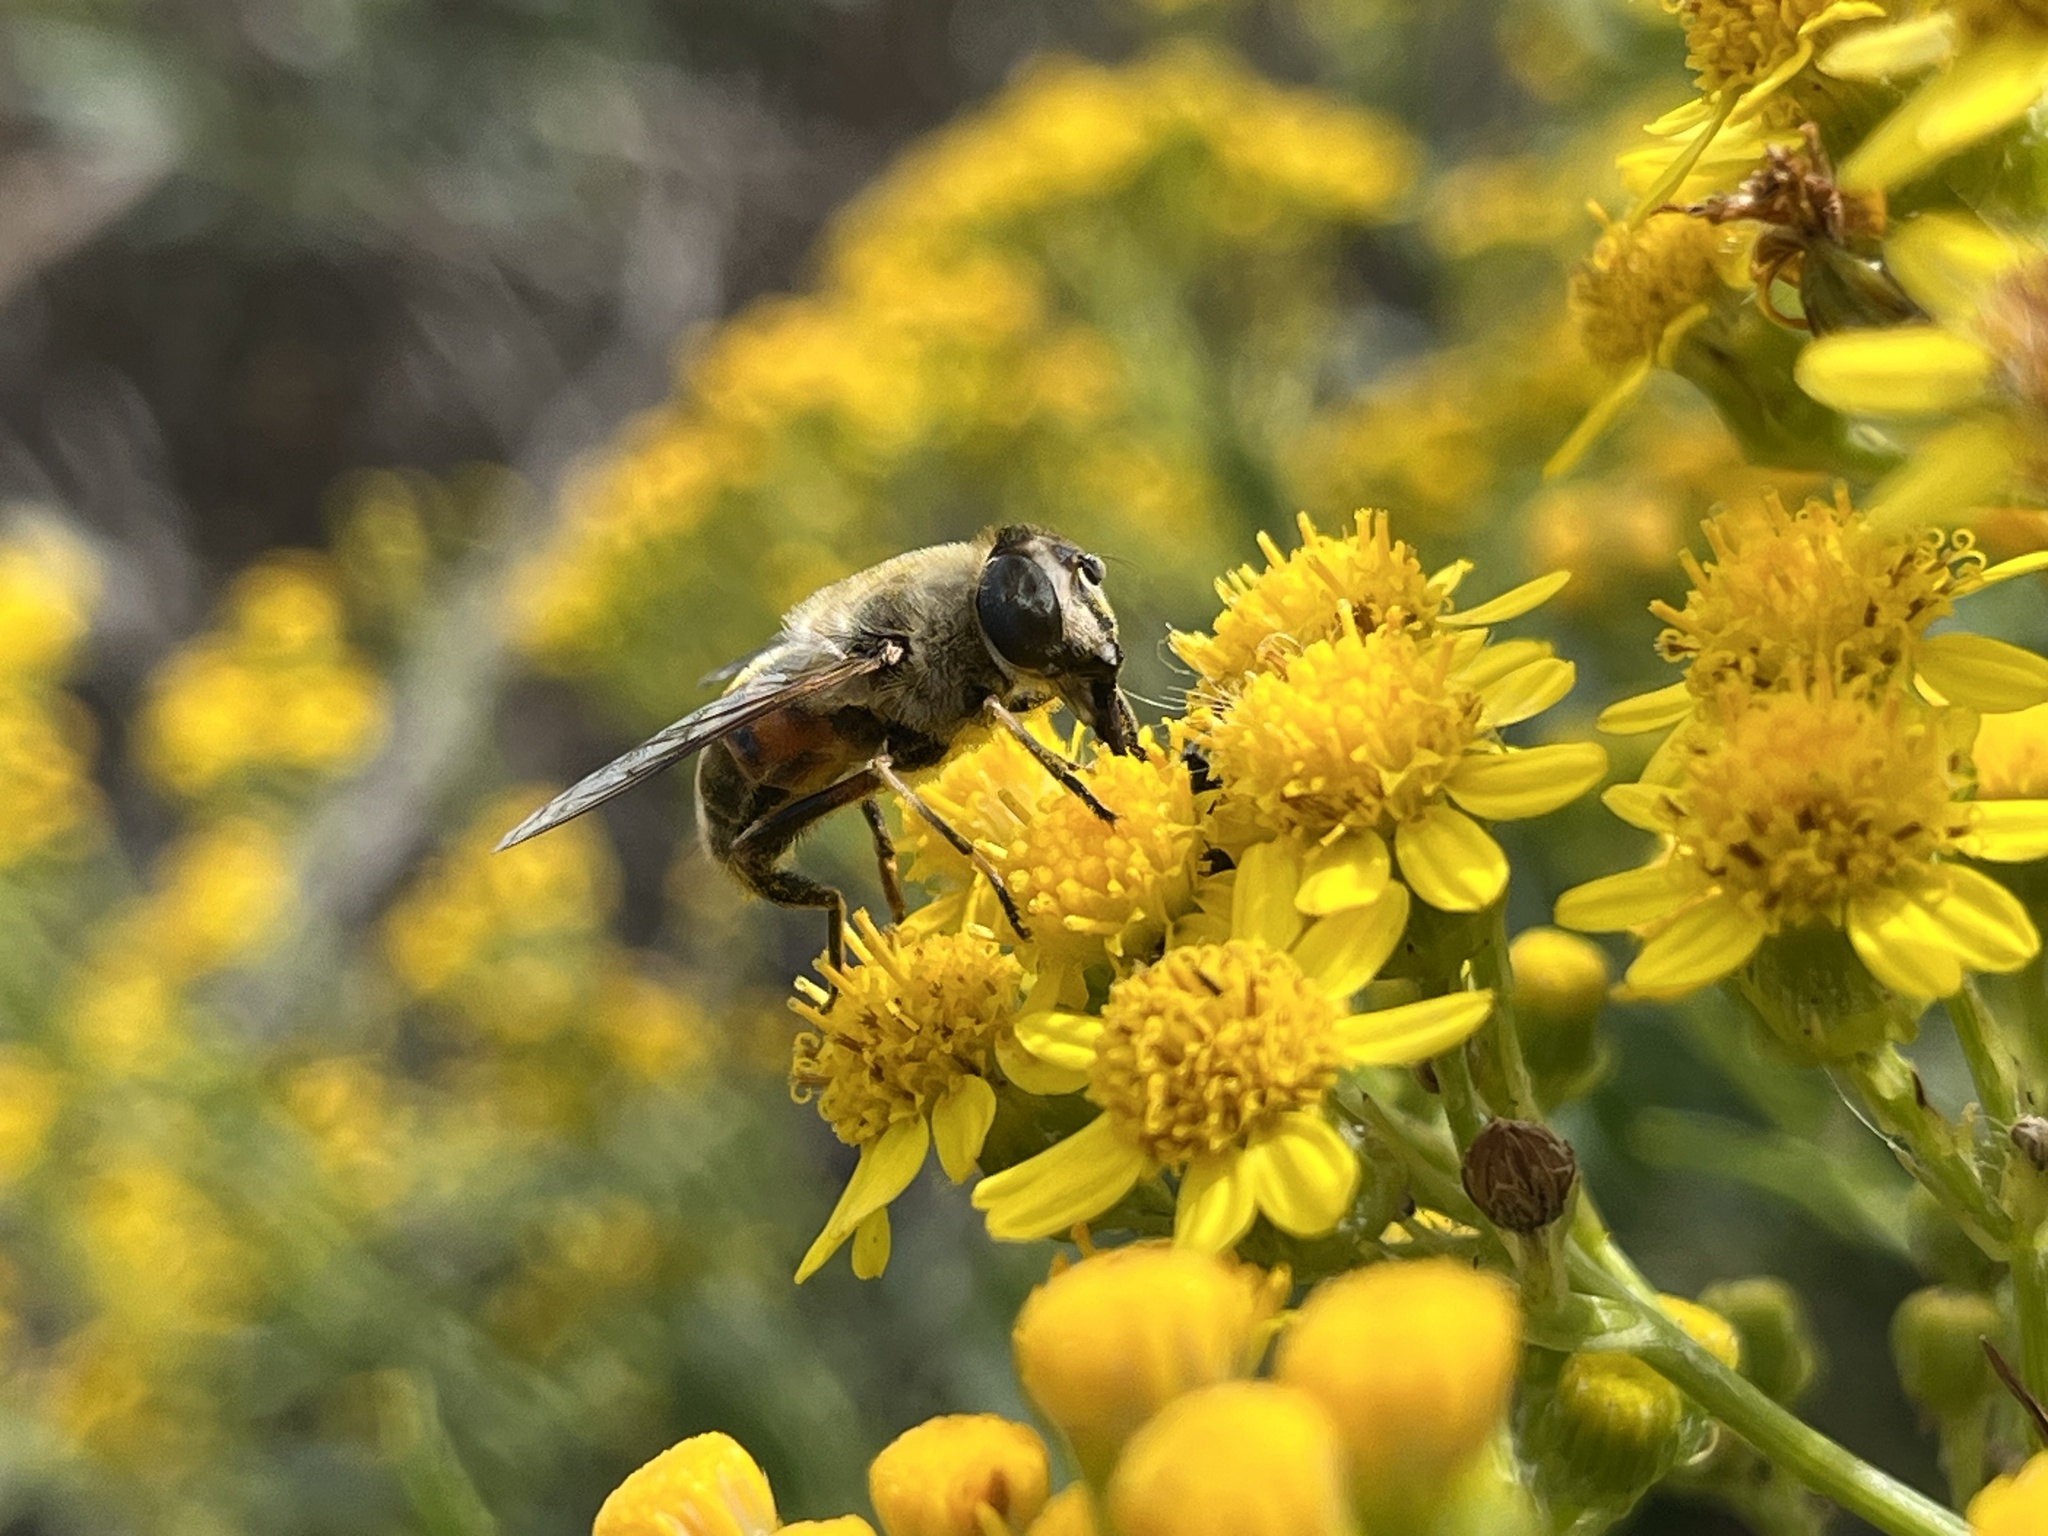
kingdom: Animalia
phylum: Arthropoda
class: Insecta
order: Diptera
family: Syrphidae
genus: Eristalis
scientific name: Eristalis tenax
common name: Drone fly
